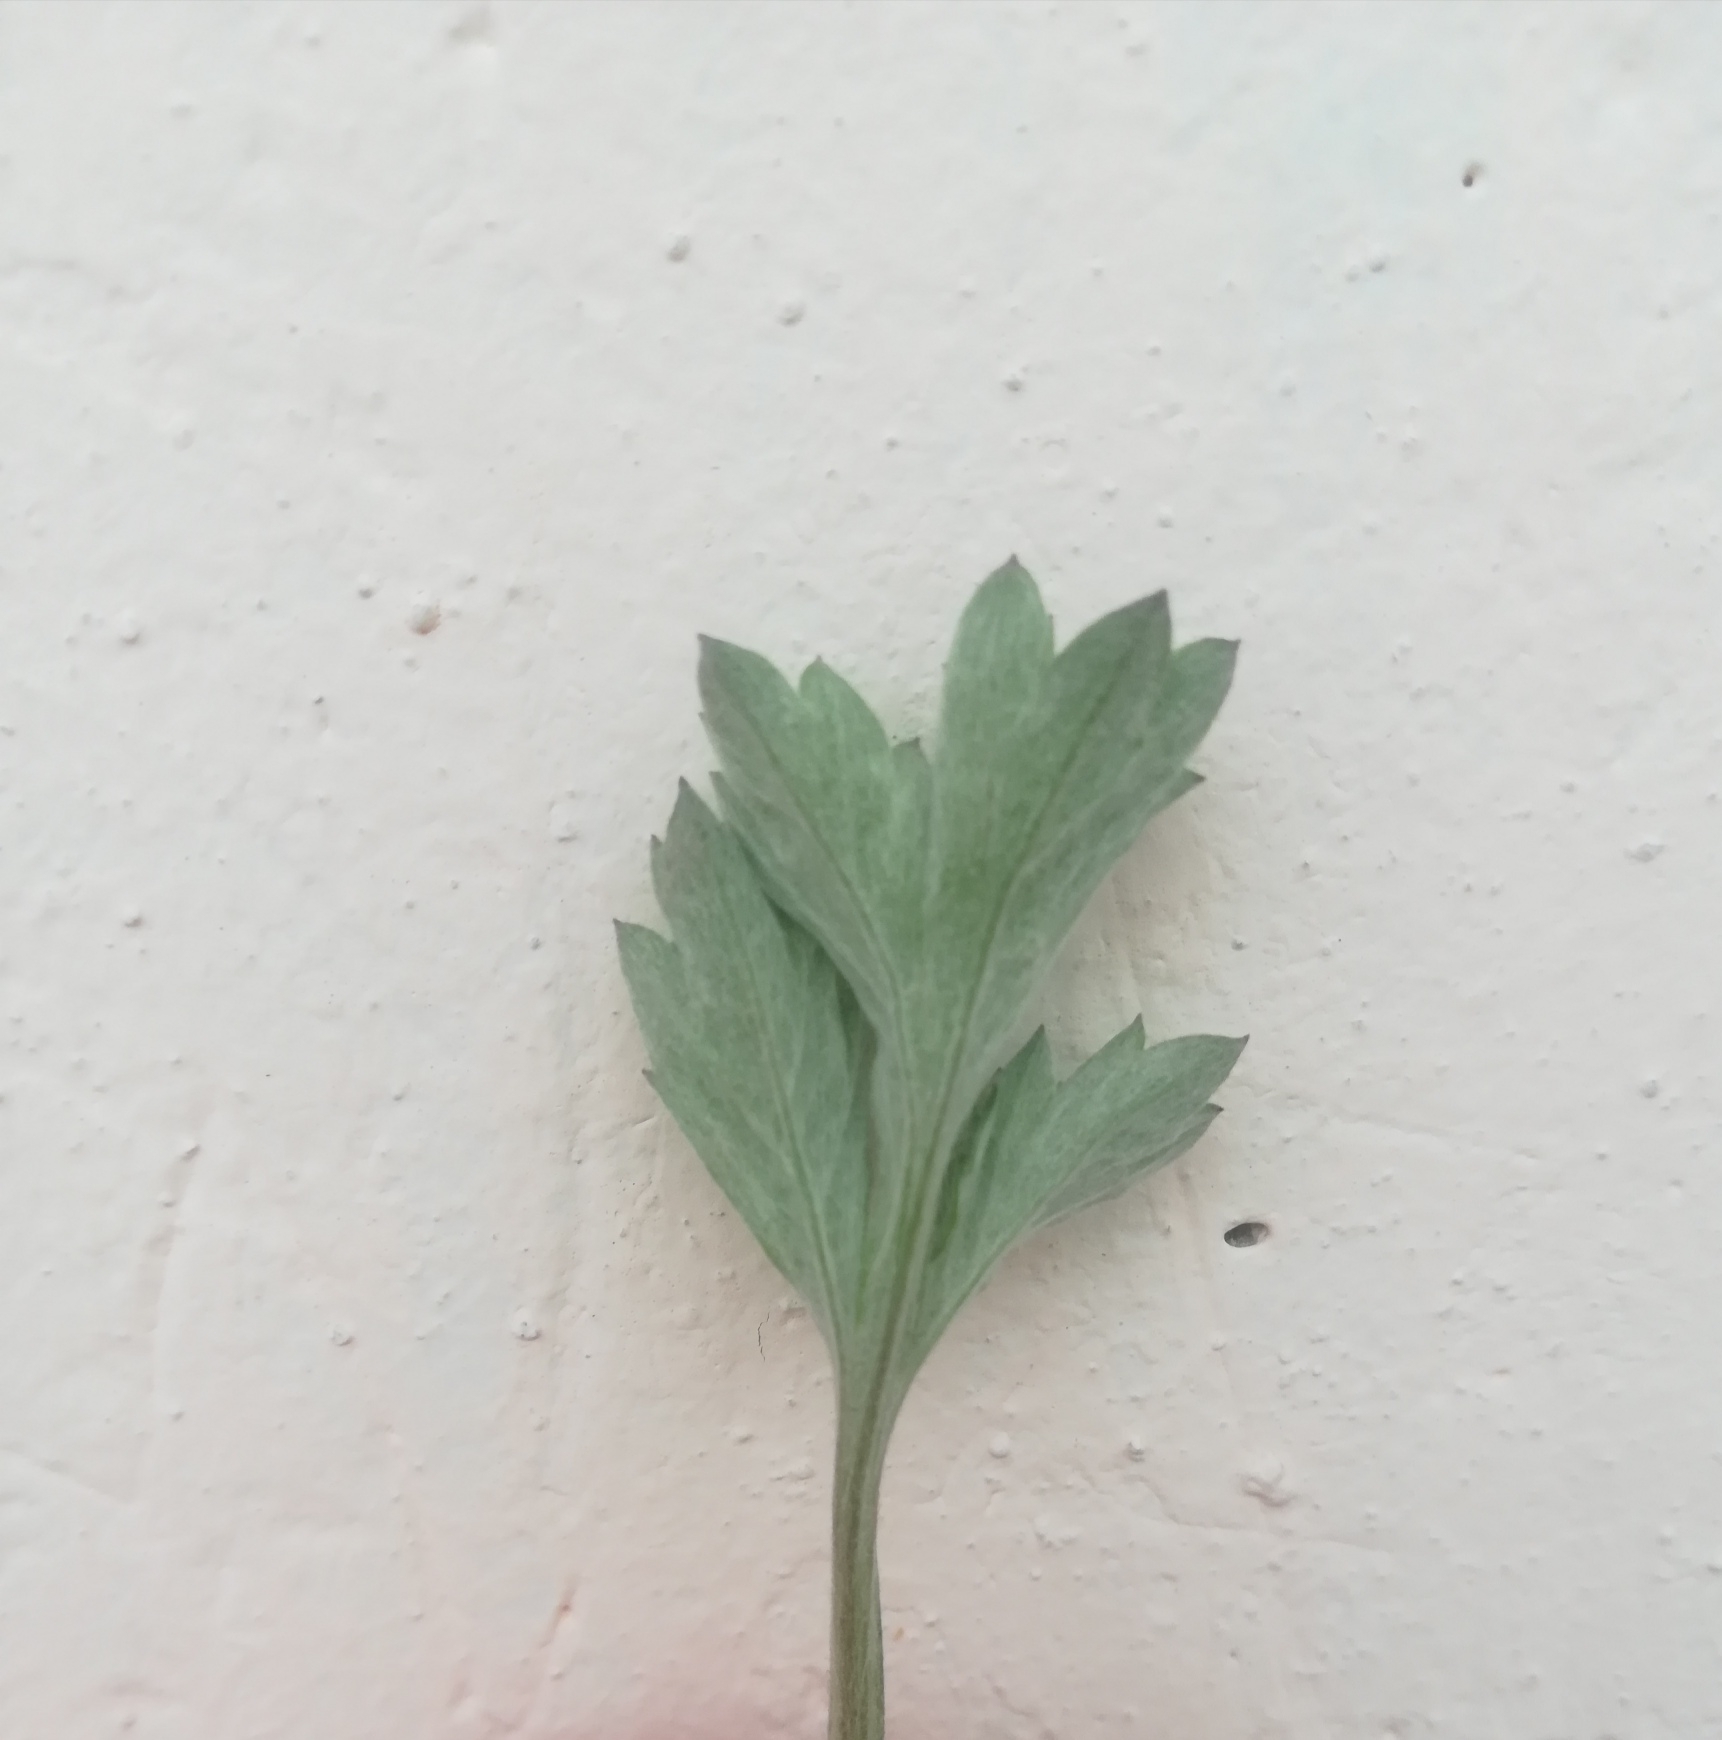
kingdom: Plantae
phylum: Tracheophyta
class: Magnoliopsida
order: Asterales
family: Asteraceae
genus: Artemisia
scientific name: Artemisia vulgaris
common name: Mugwort
